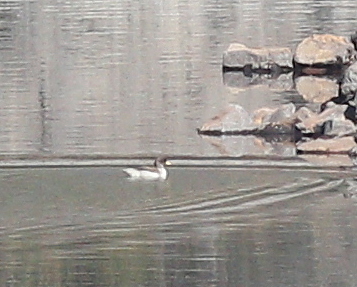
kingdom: Animalia
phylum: Chordata
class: Aves
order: Anseriformes
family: Anatidae
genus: Anas
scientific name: Anas flavirostris
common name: Yellow-billed teal
